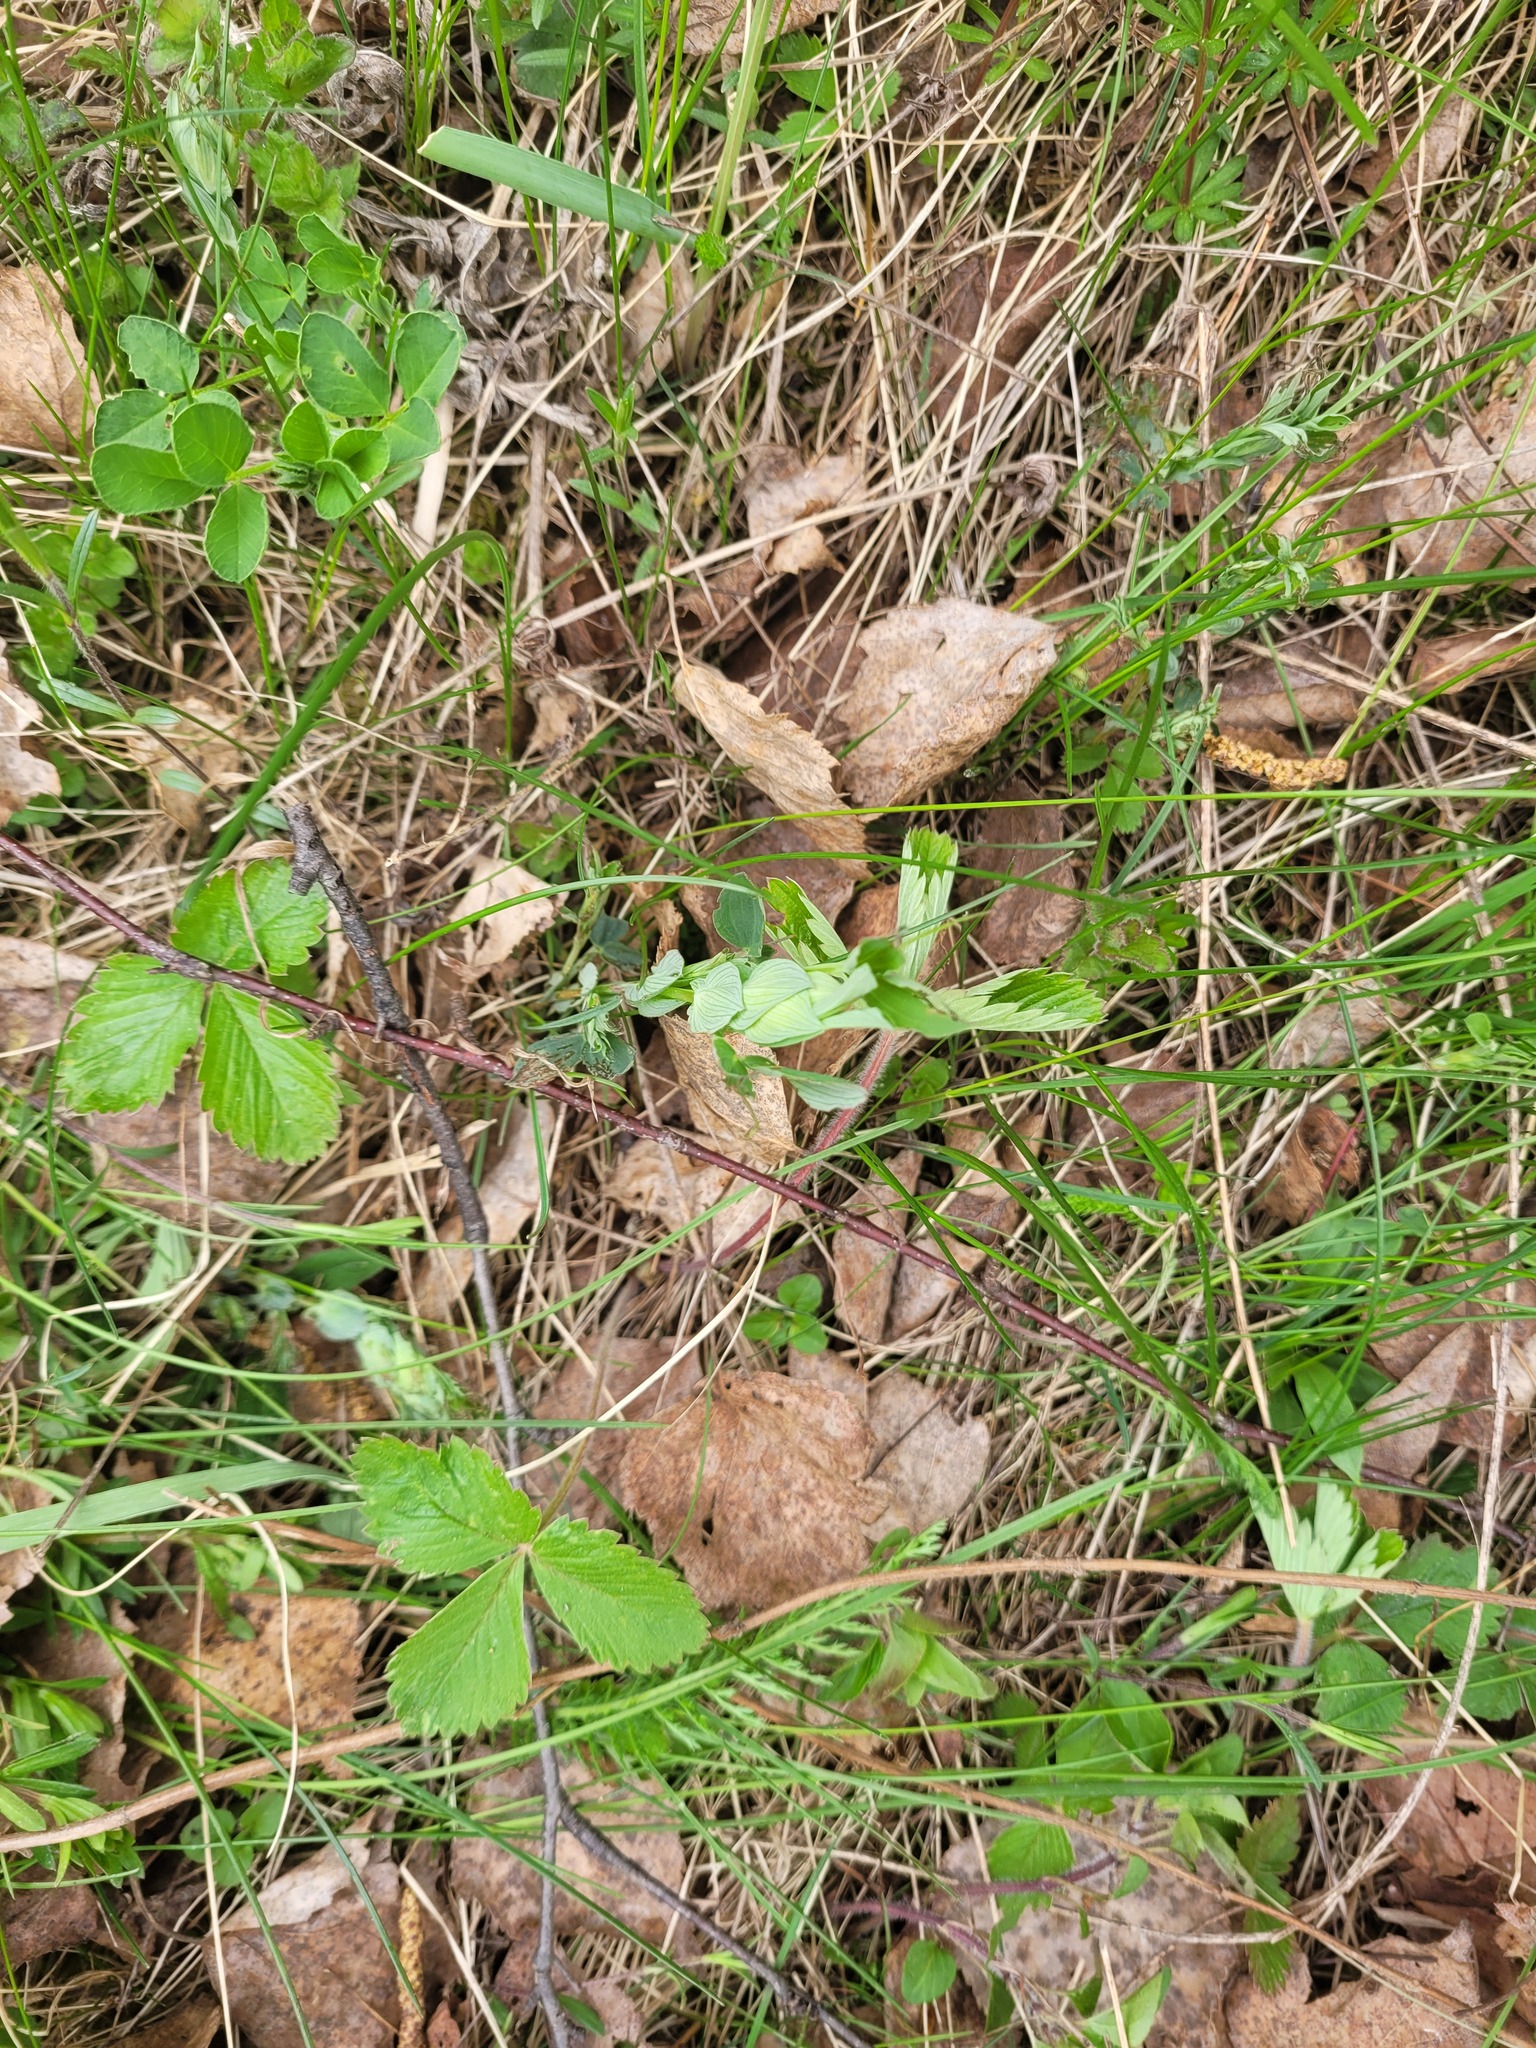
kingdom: Plantae
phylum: Tracheophyta
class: Magnoliopsida
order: Fabales
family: Fabaceae
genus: Lathyrus
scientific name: Lathyrus pratensis
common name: Meadow vetchling
